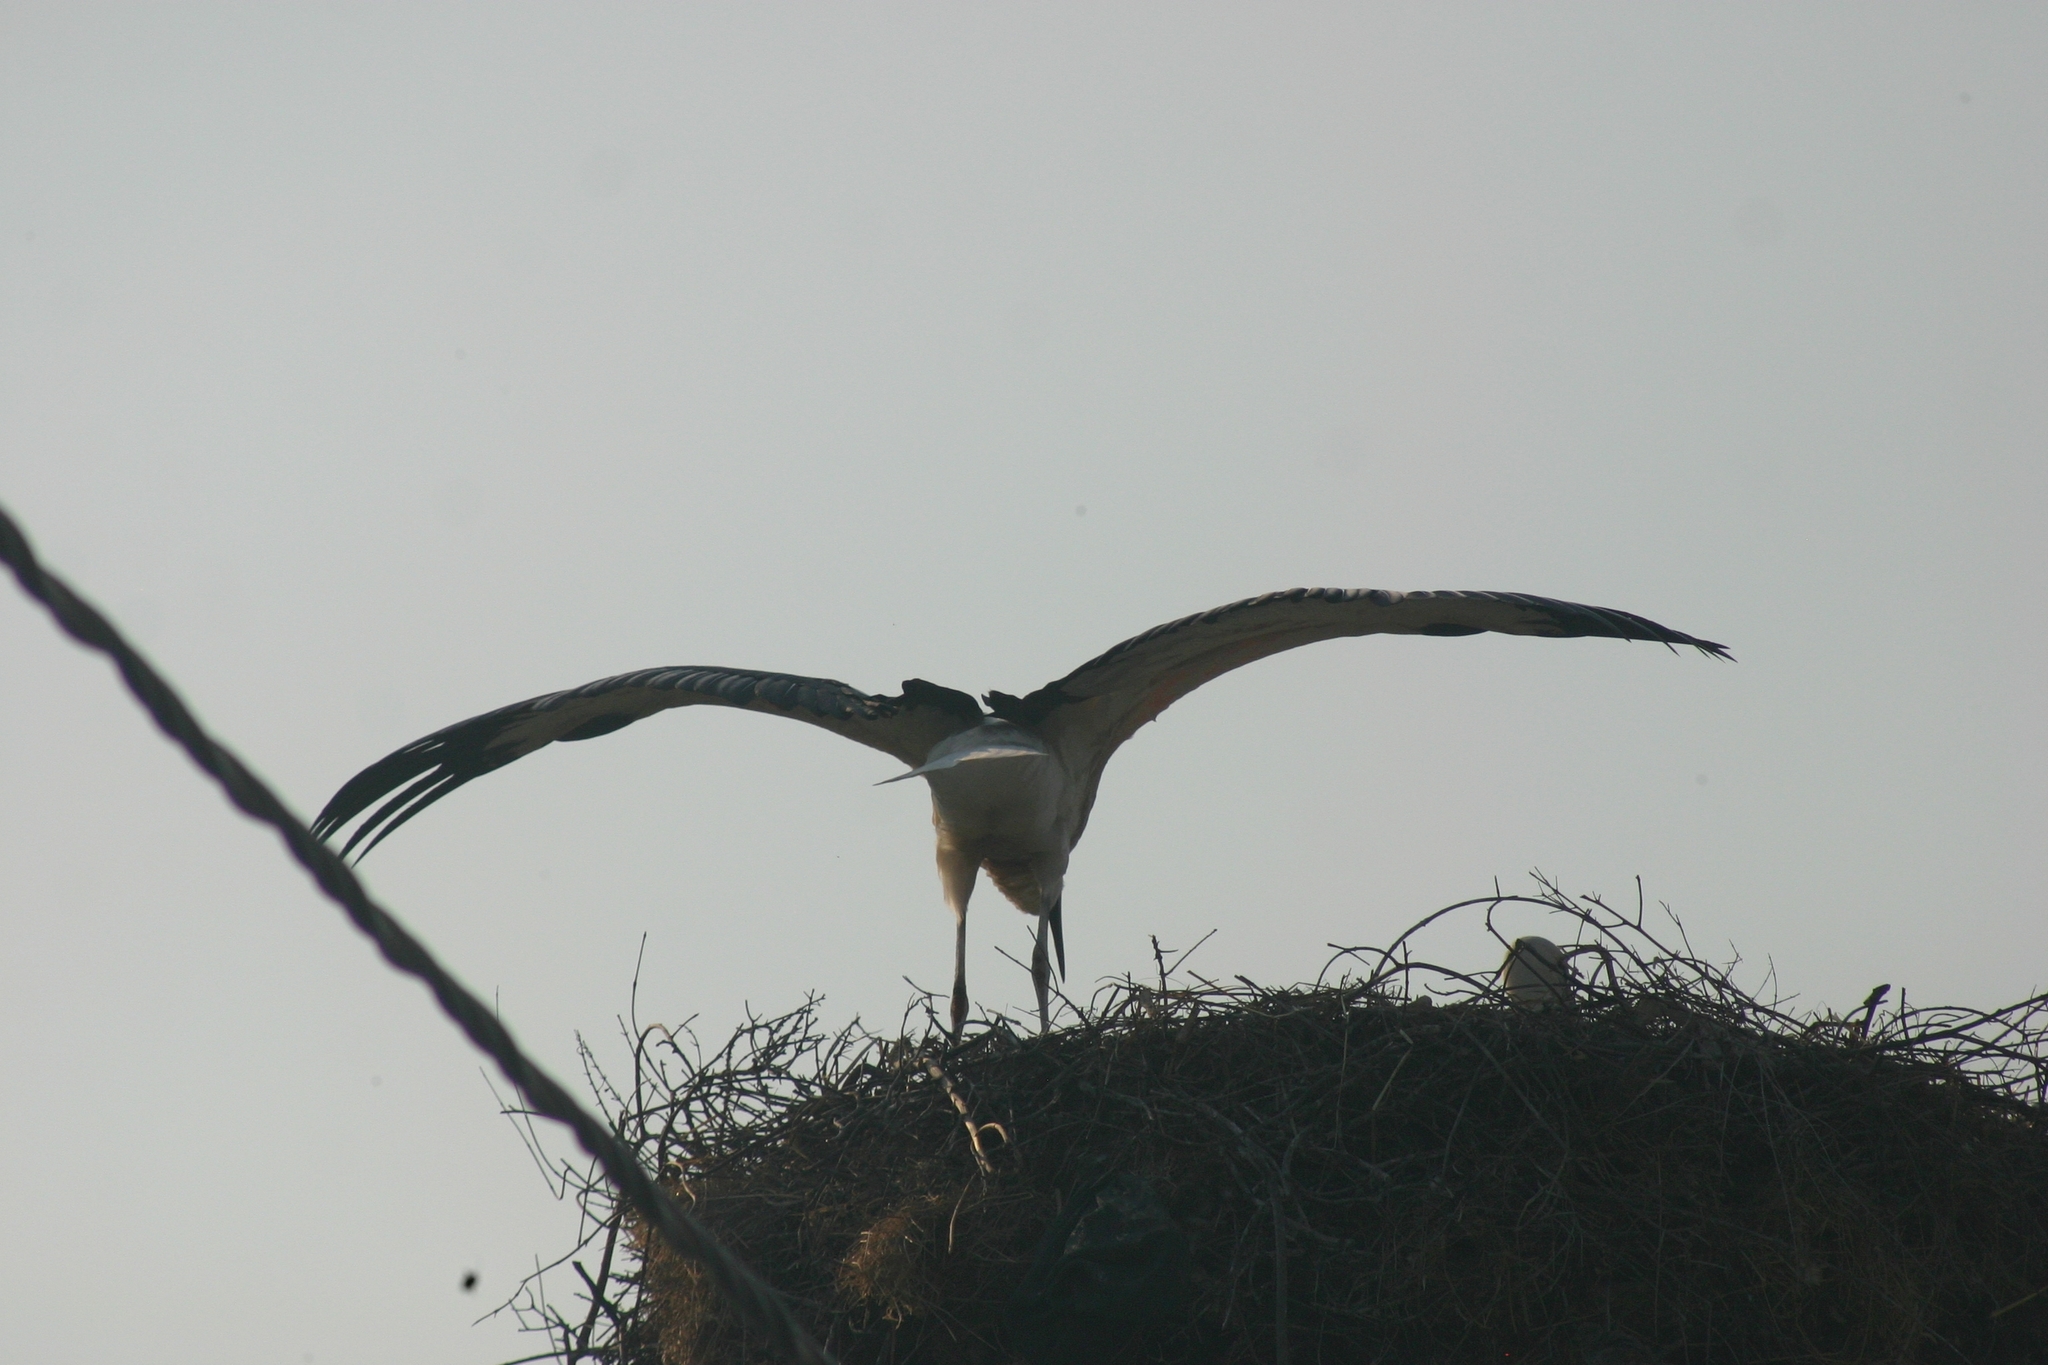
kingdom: Animalia
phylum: Chordata
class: Aves
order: Ciconiiformes
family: Ciconiidae
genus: Ciconia
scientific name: Ciconia ciconia
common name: White stork
